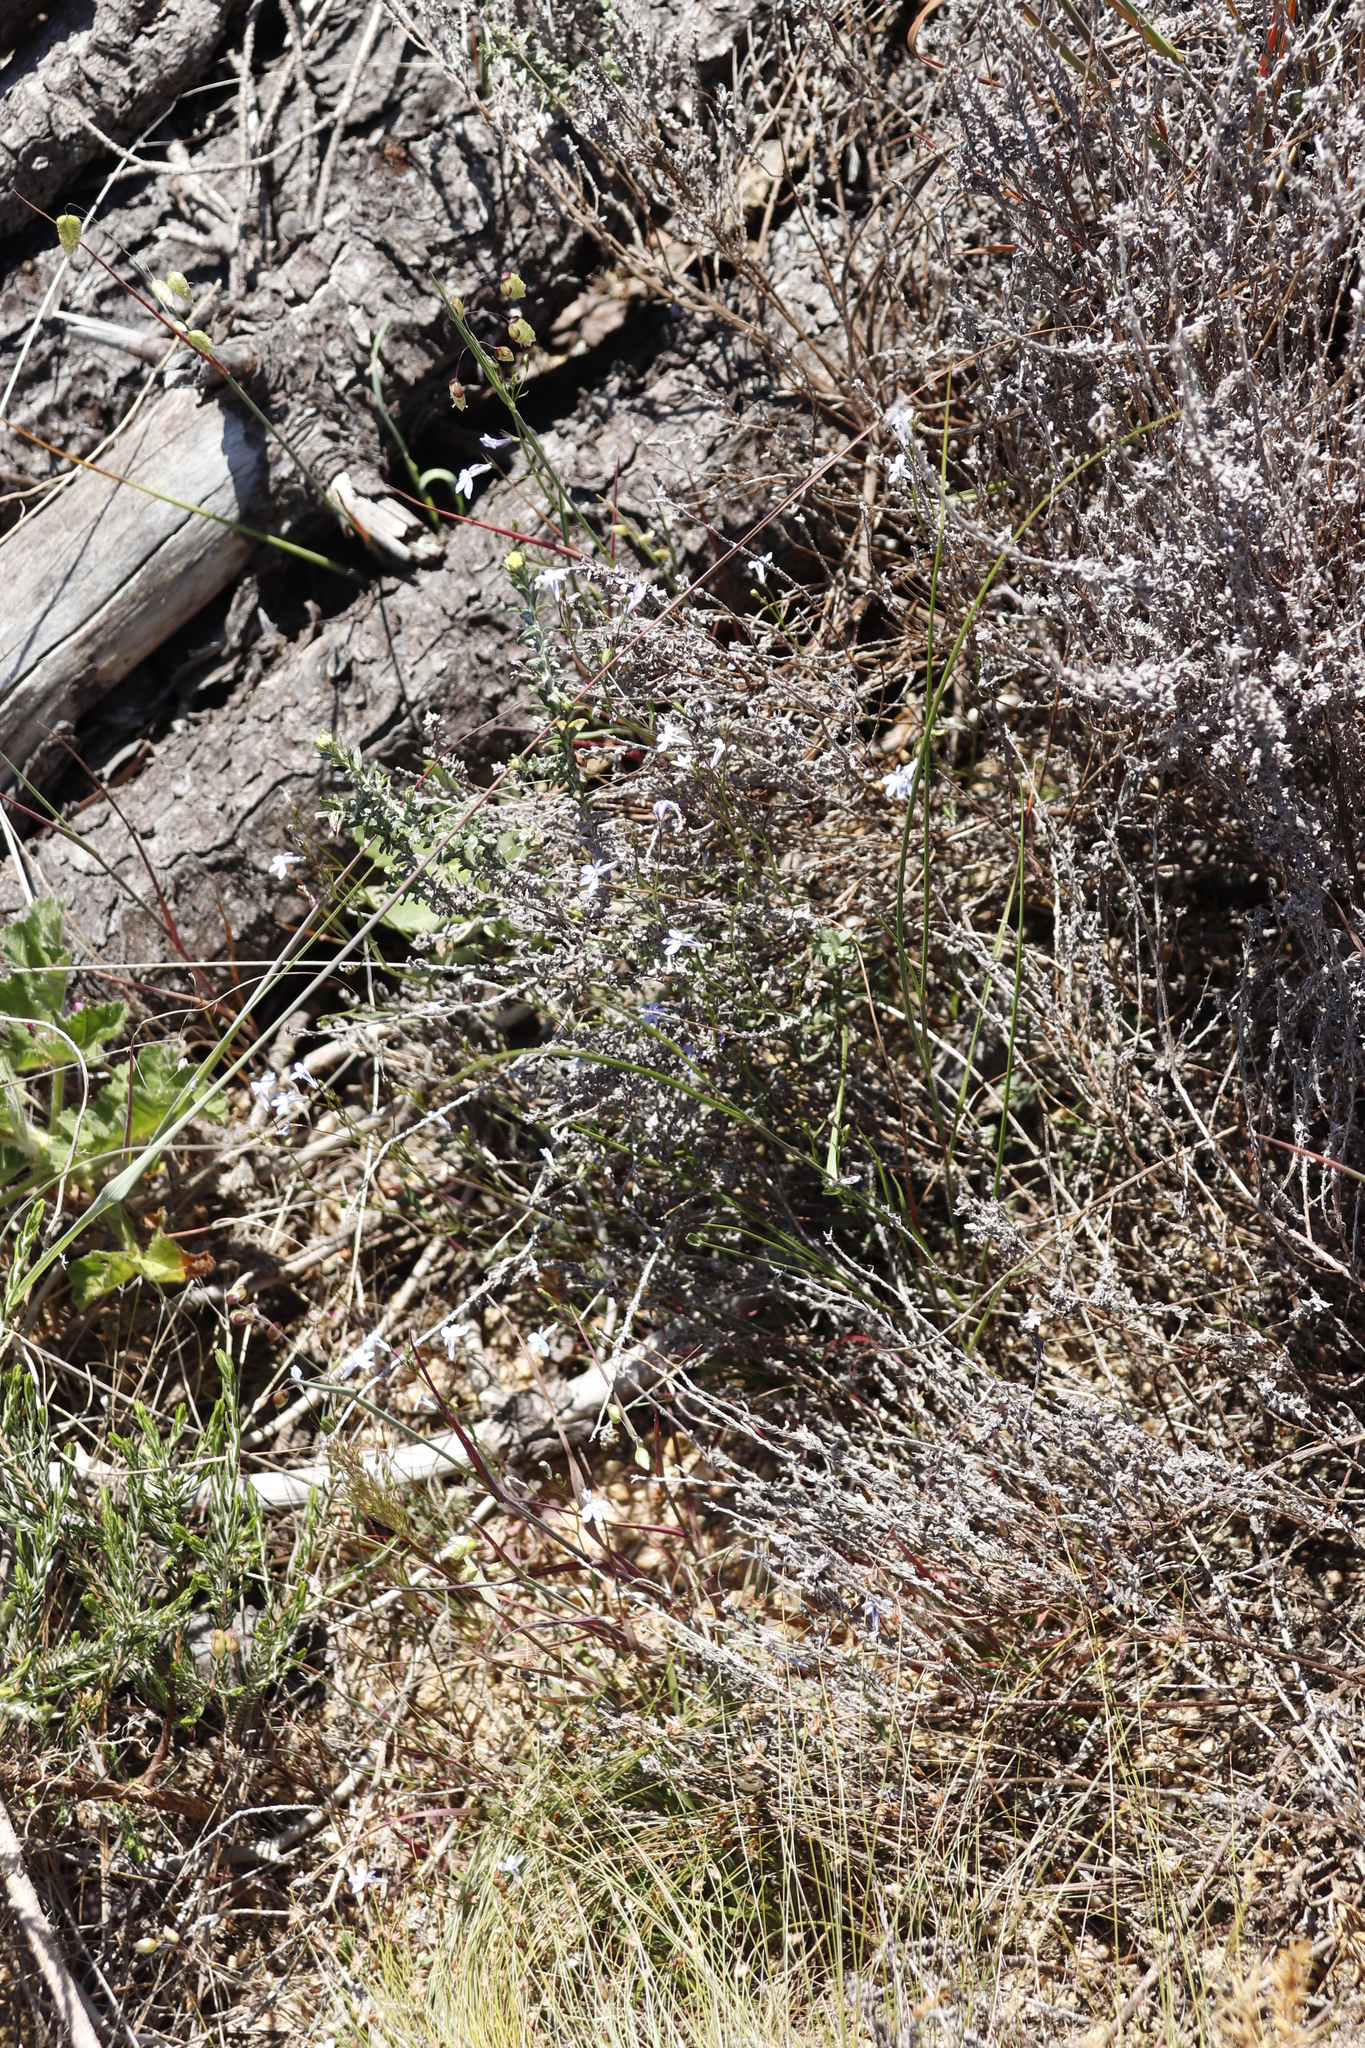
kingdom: Plantae
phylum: Tracheophyta
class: Magnoliopsida
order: Asterales
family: Campanulaceae
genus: Lobelia
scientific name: Lobelia erinus
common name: Edging lobelia
